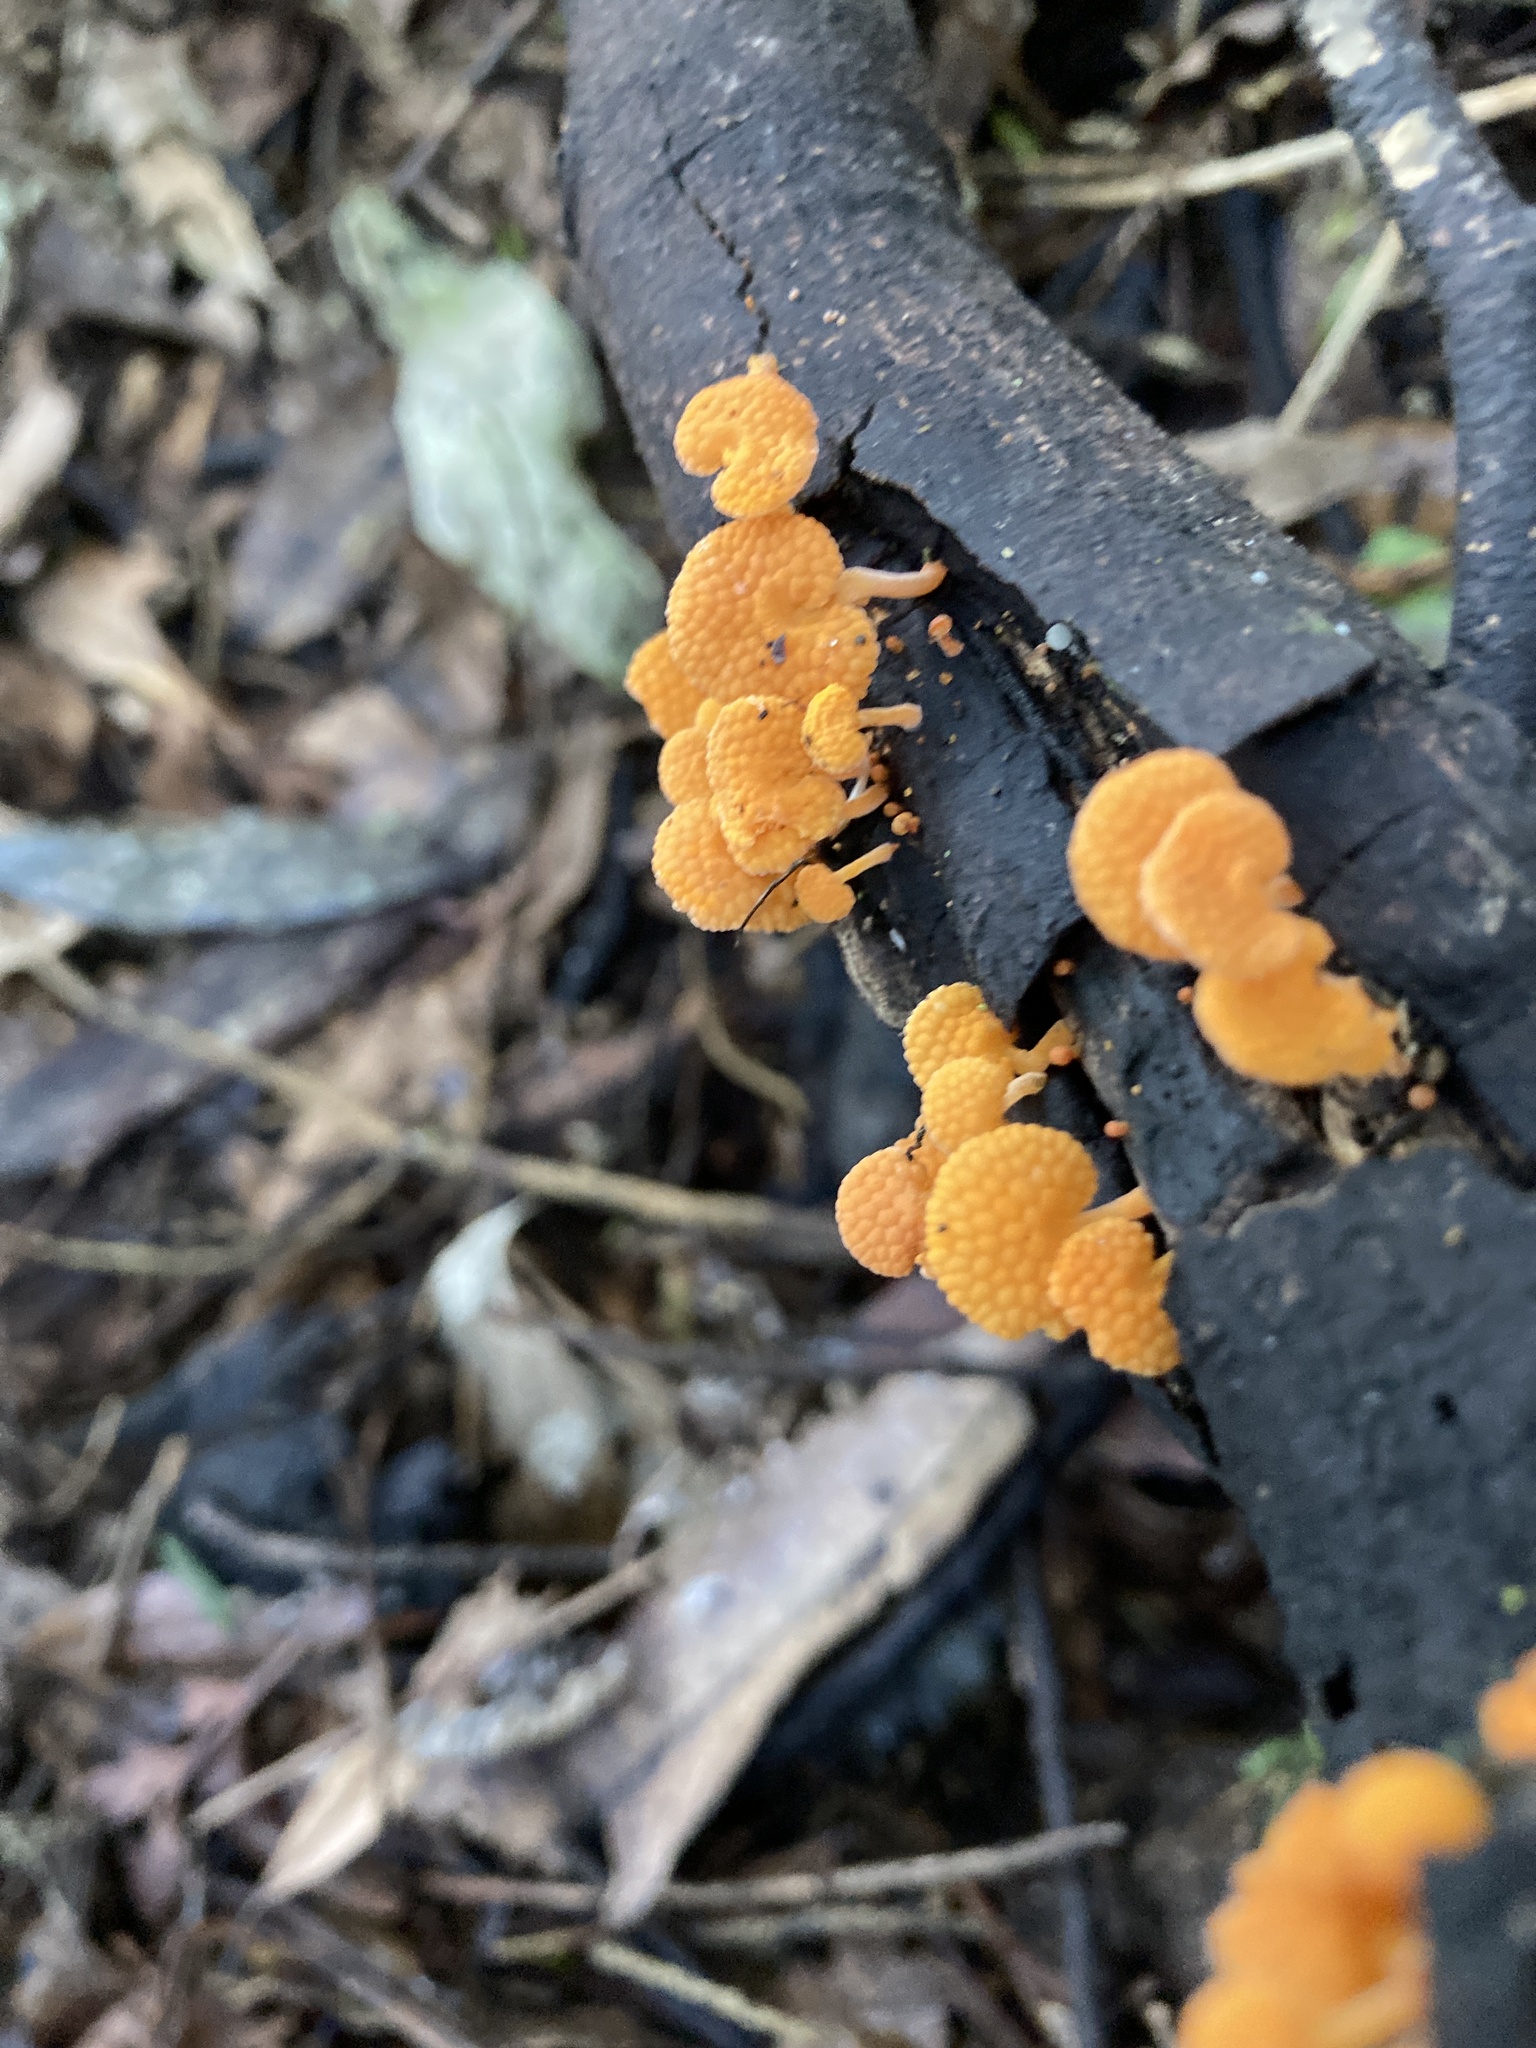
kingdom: Fungi
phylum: Basidiomycota
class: Agaricomycetes
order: Agaricales
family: Mycenaceae
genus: Favolaschia
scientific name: Favolaschia claudopus
